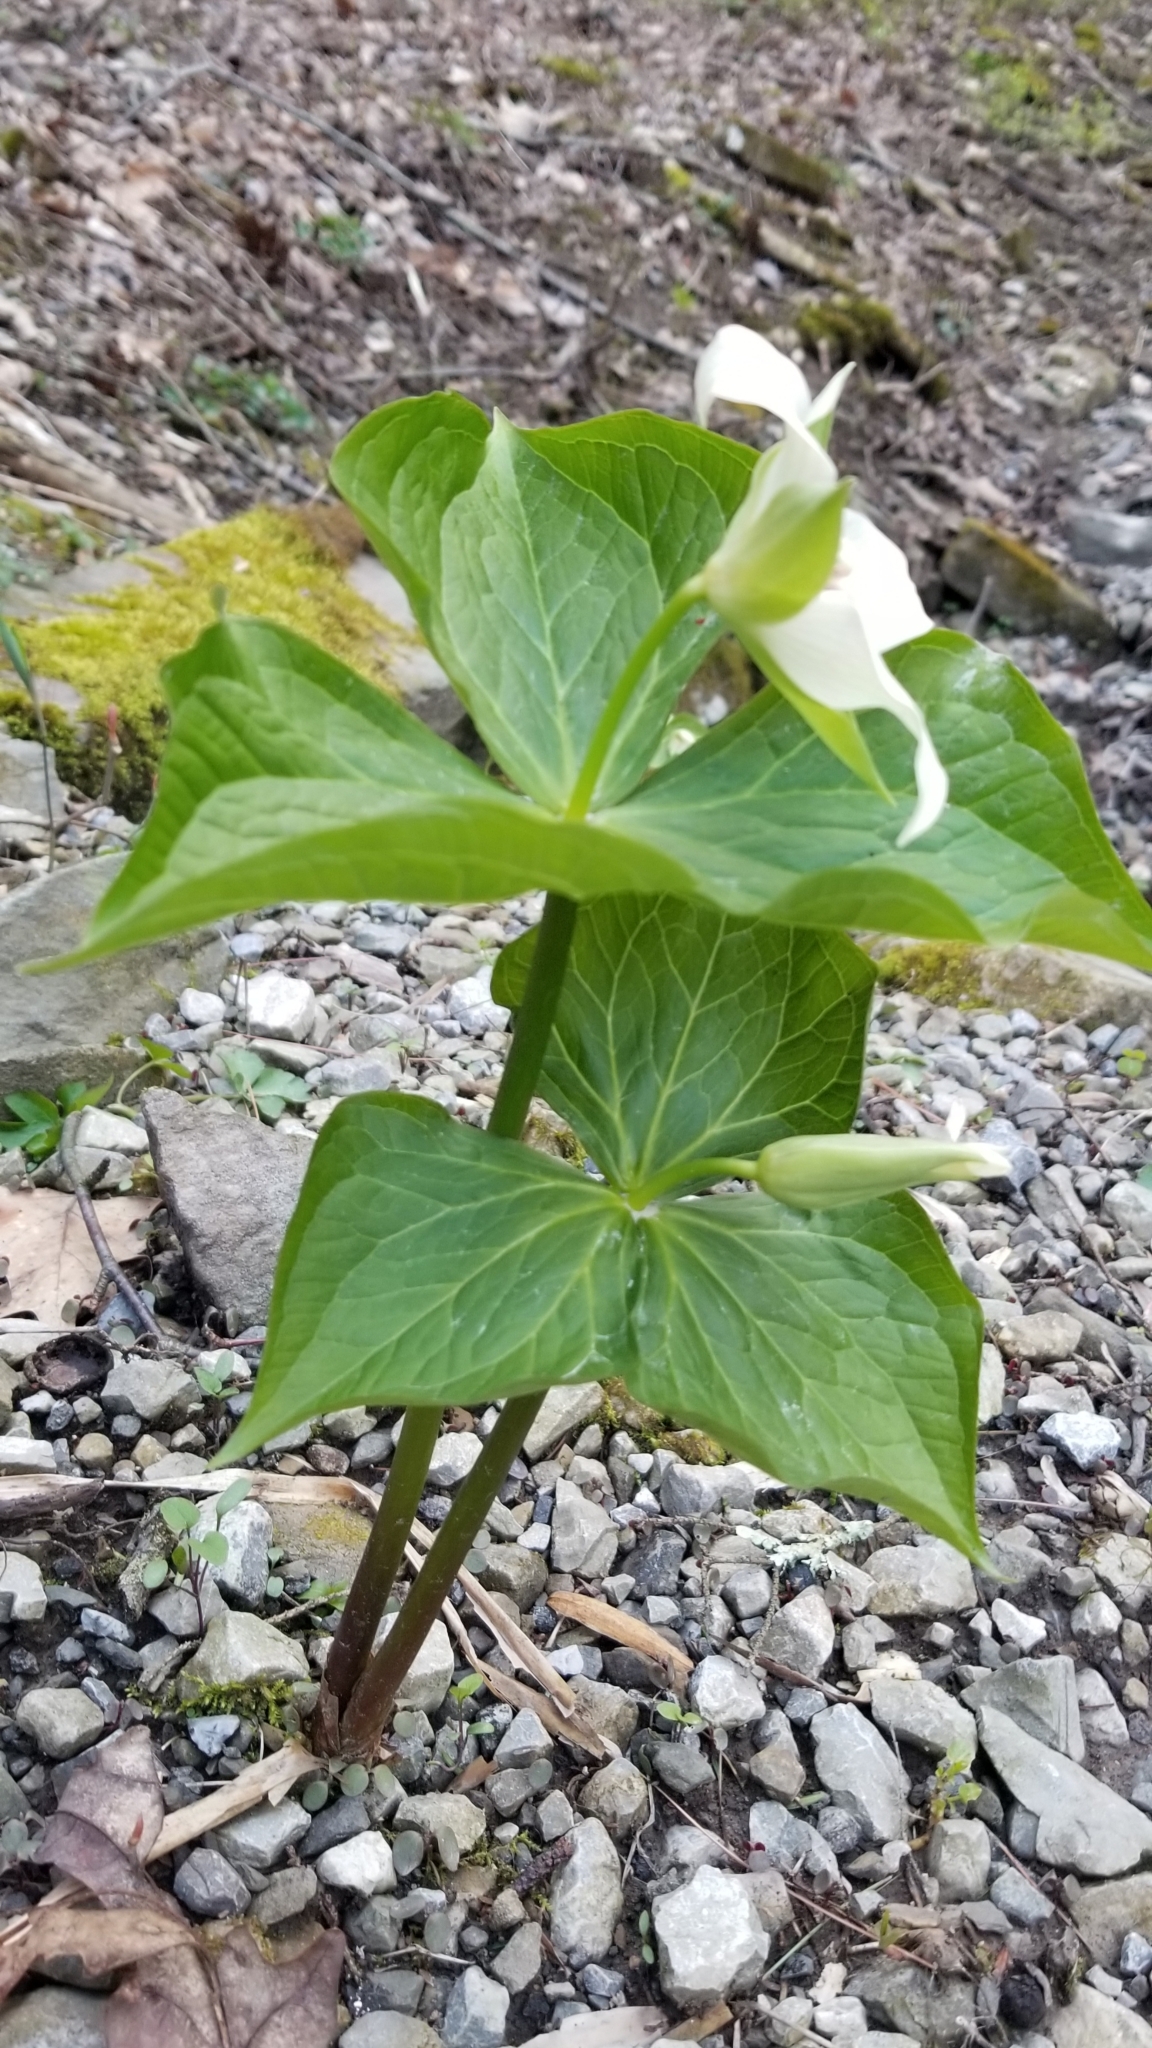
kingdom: Plantae
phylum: Tracheophyta
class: Liliopsida
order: Liliales
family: Melanthiaceae
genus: Trillium
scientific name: Trillium erectum
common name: Purple trillium
